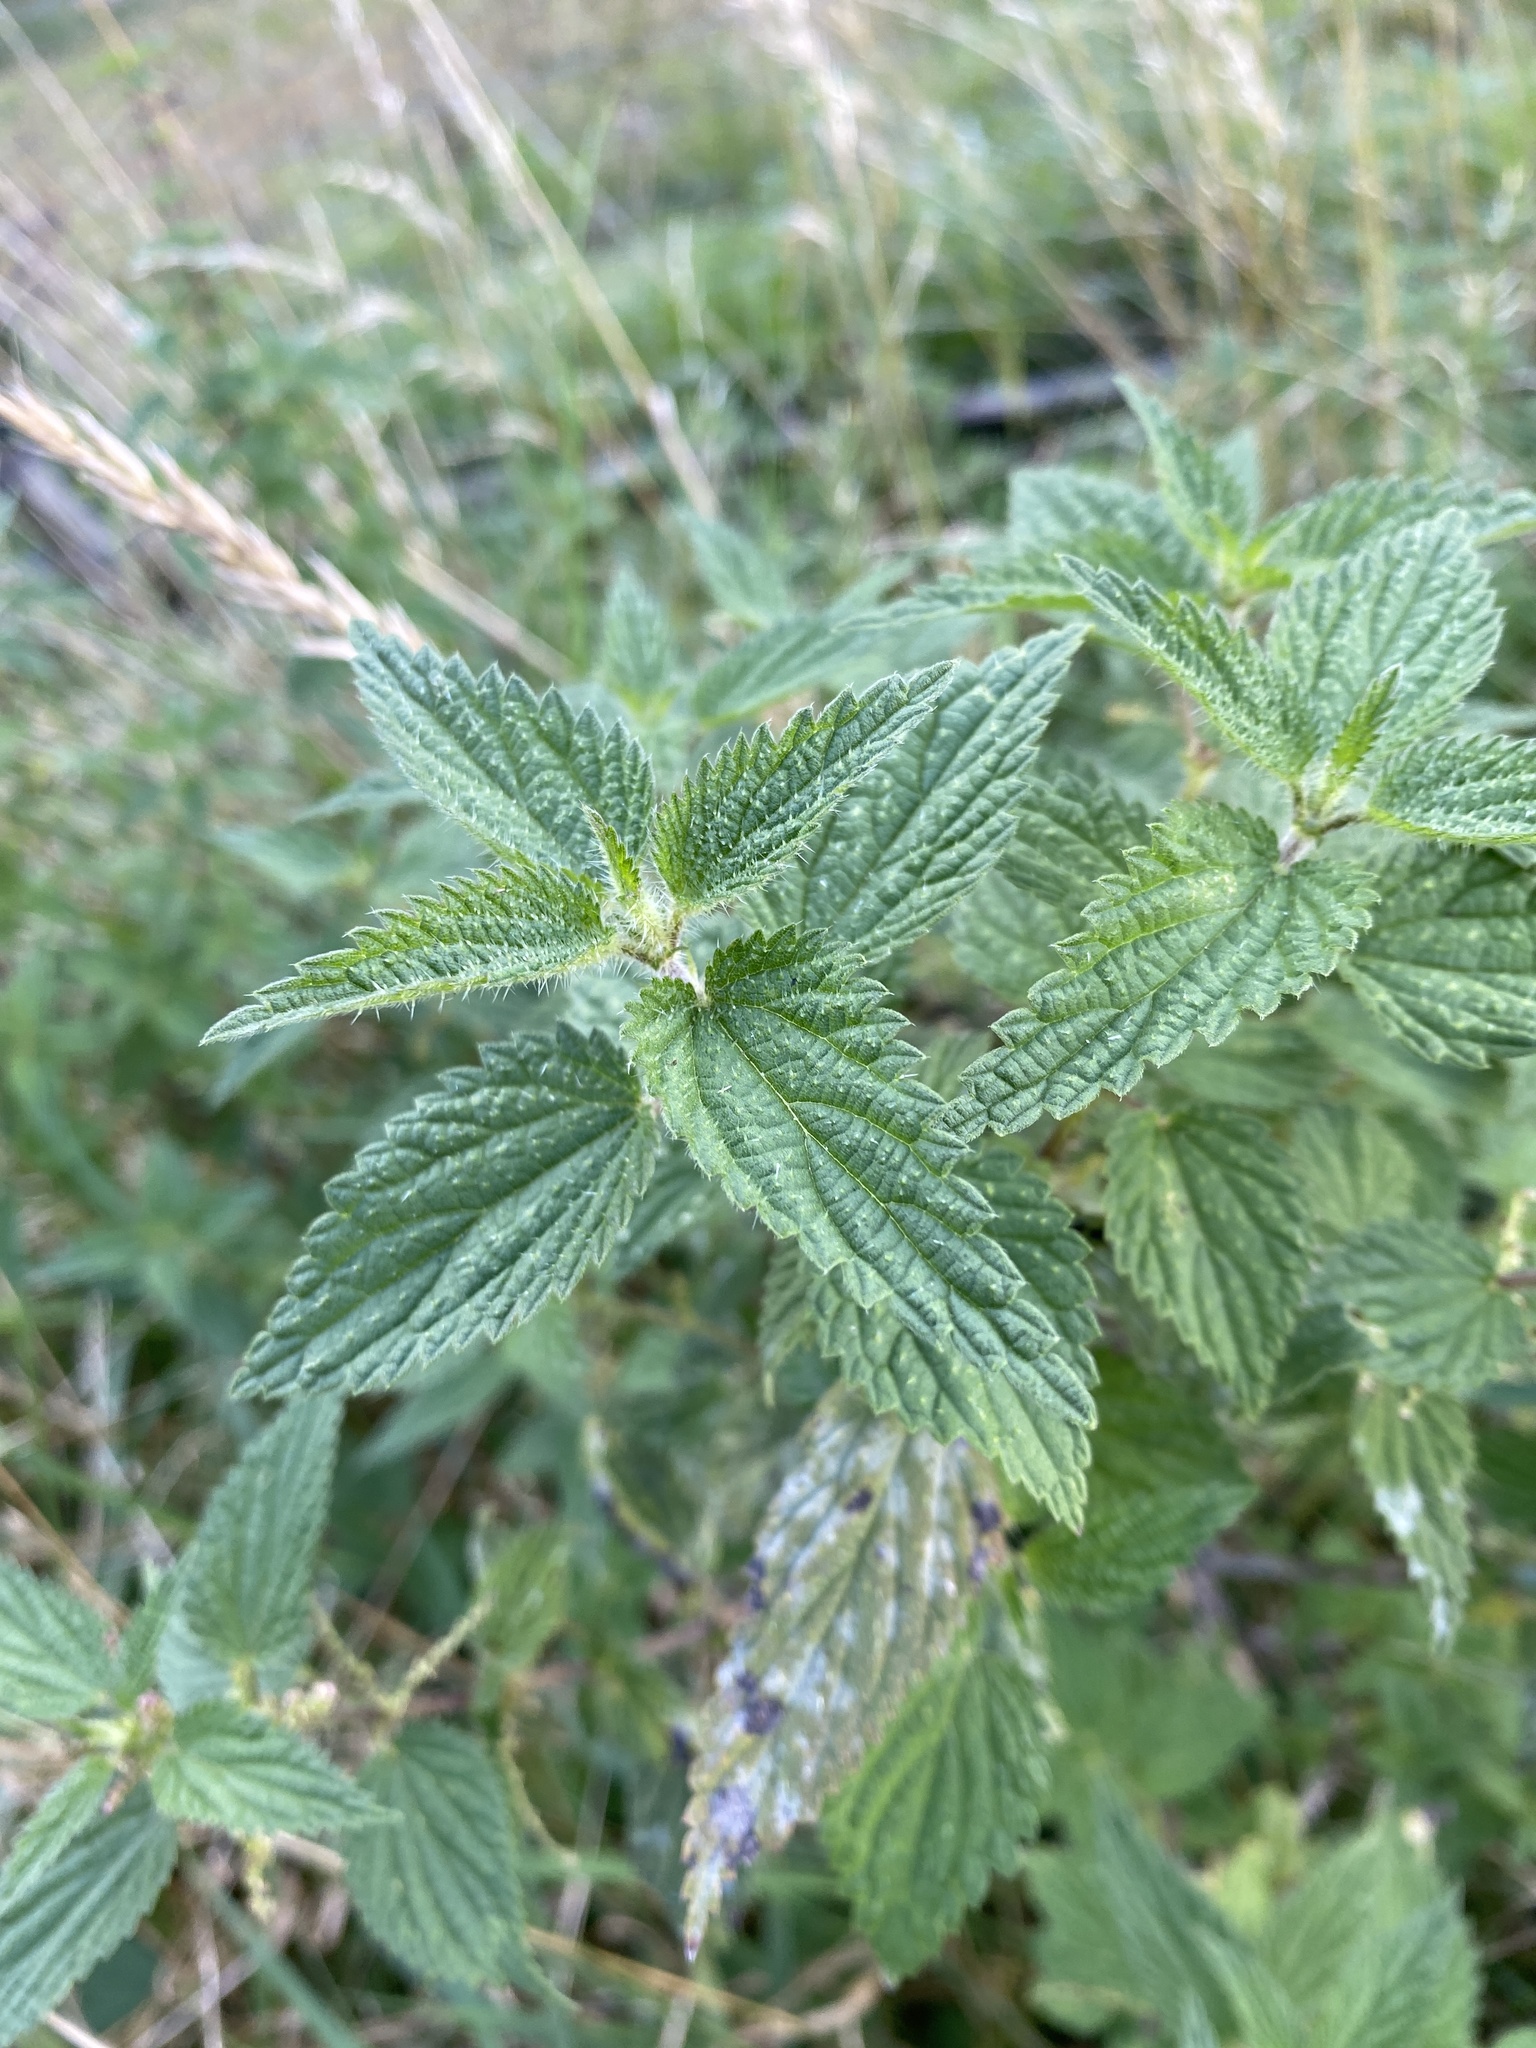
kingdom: Plantae
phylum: Tracheophyta
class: Magnoliopsida
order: Rosales
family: Urticaceae
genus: Urtica
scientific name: Urtica dioica
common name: Common nettle
